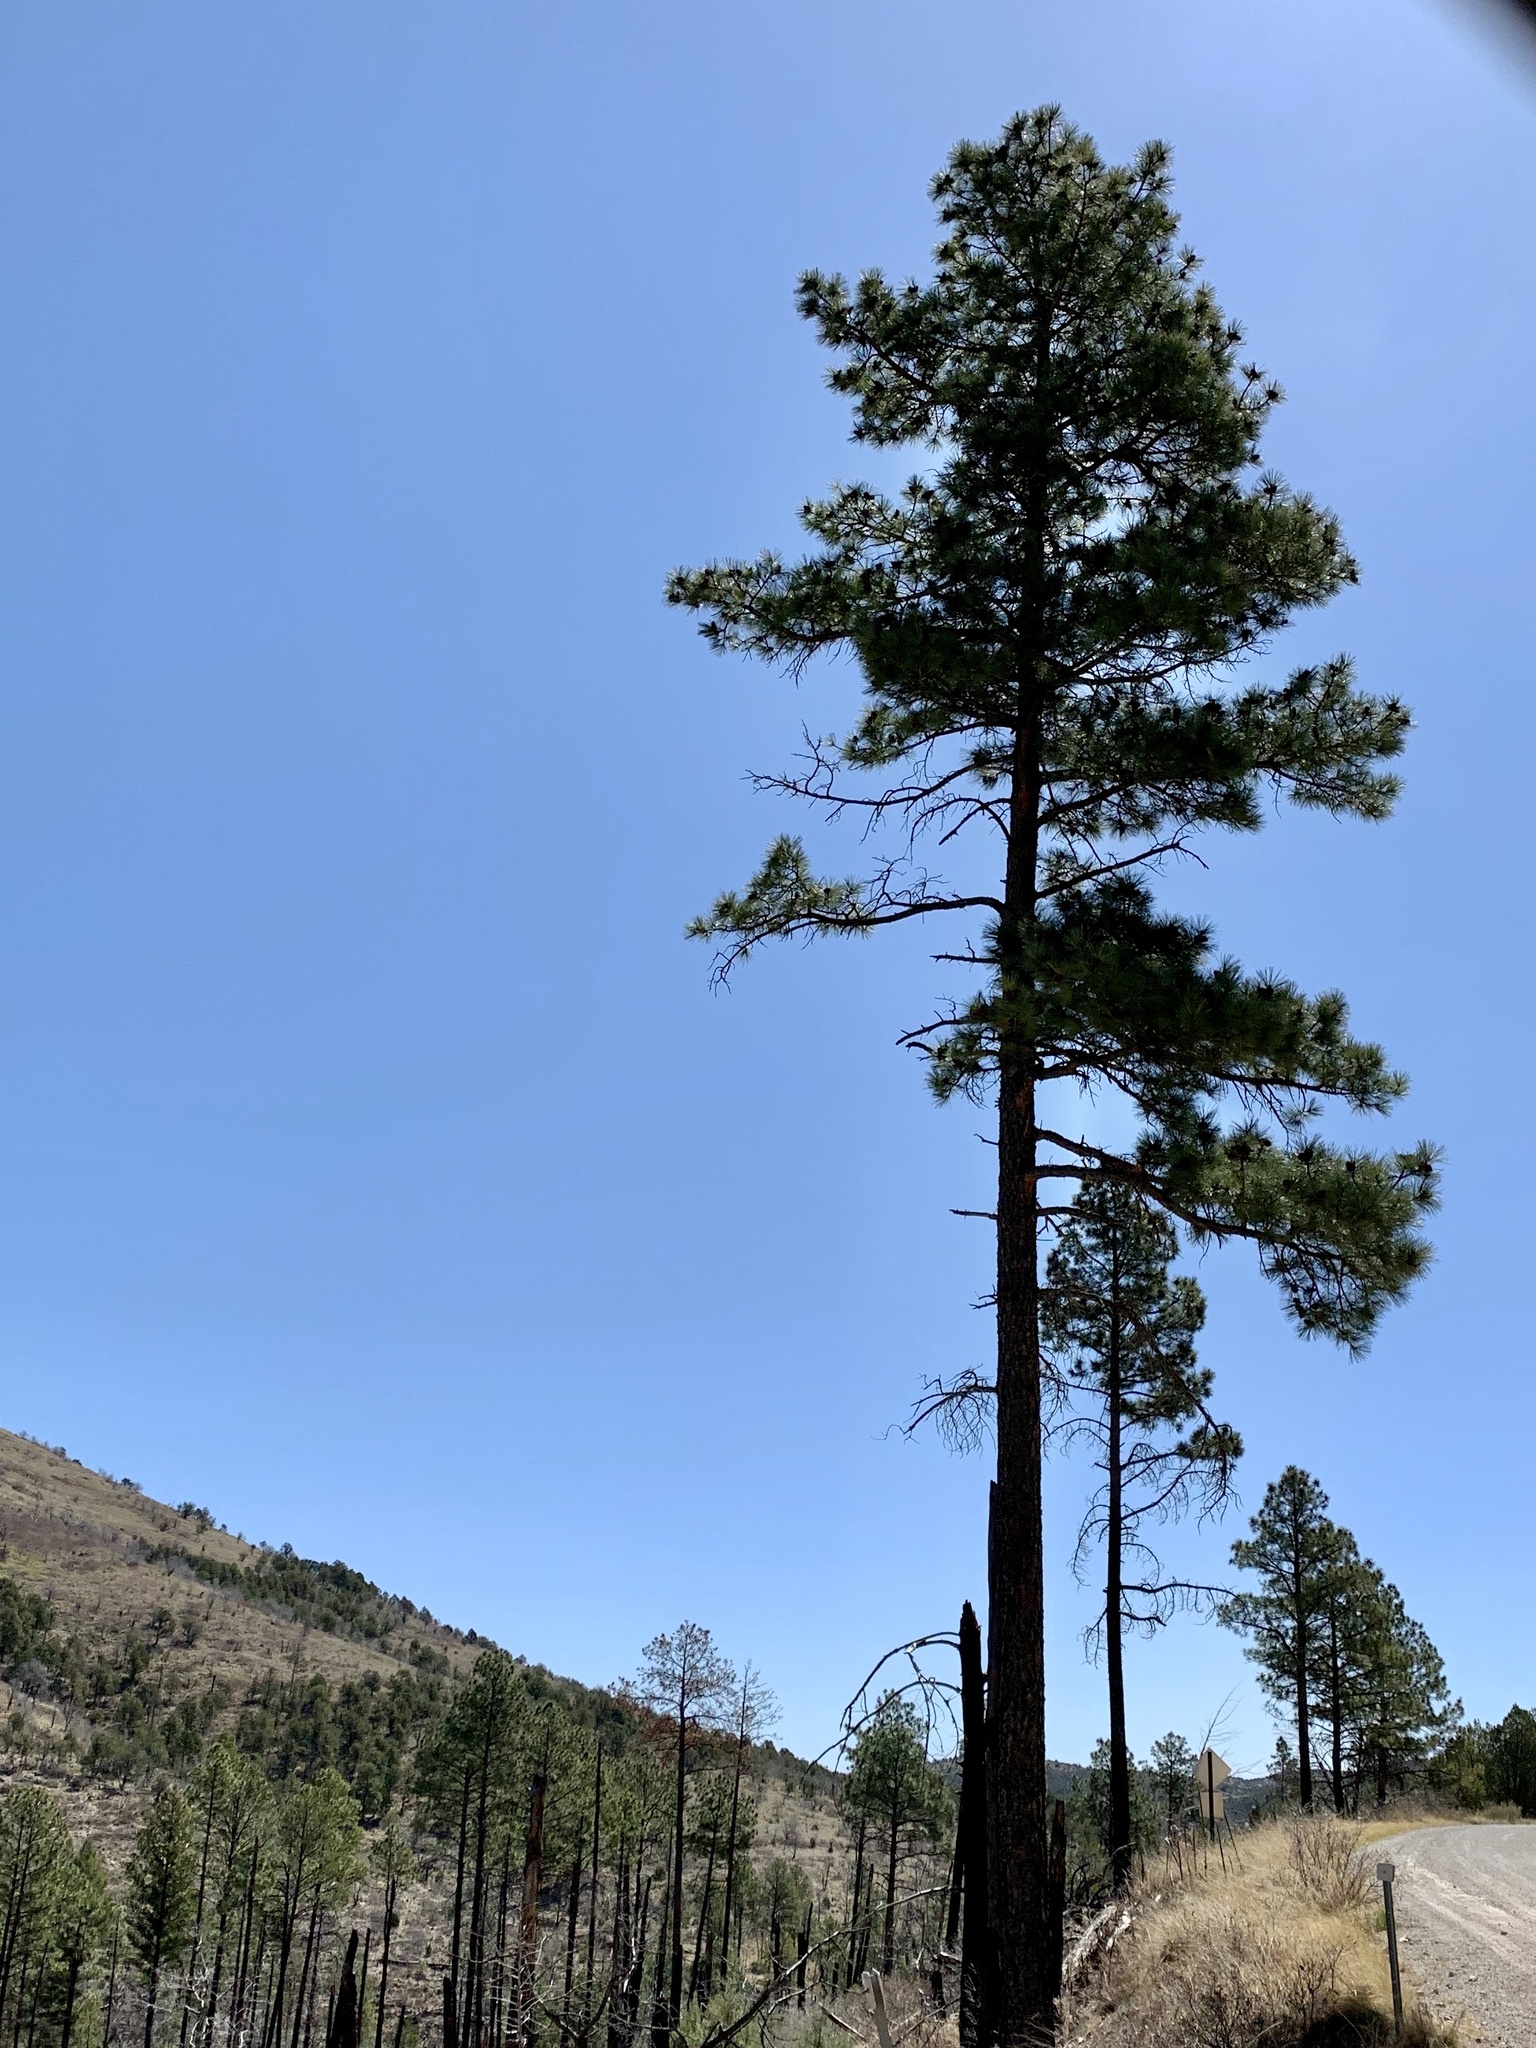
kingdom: Plantae
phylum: Tracheophyta
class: Pinopsida
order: Pinales
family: Pinaceae
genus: Pinus
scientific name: Pinus ponderosa
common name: Western yellow-pine
